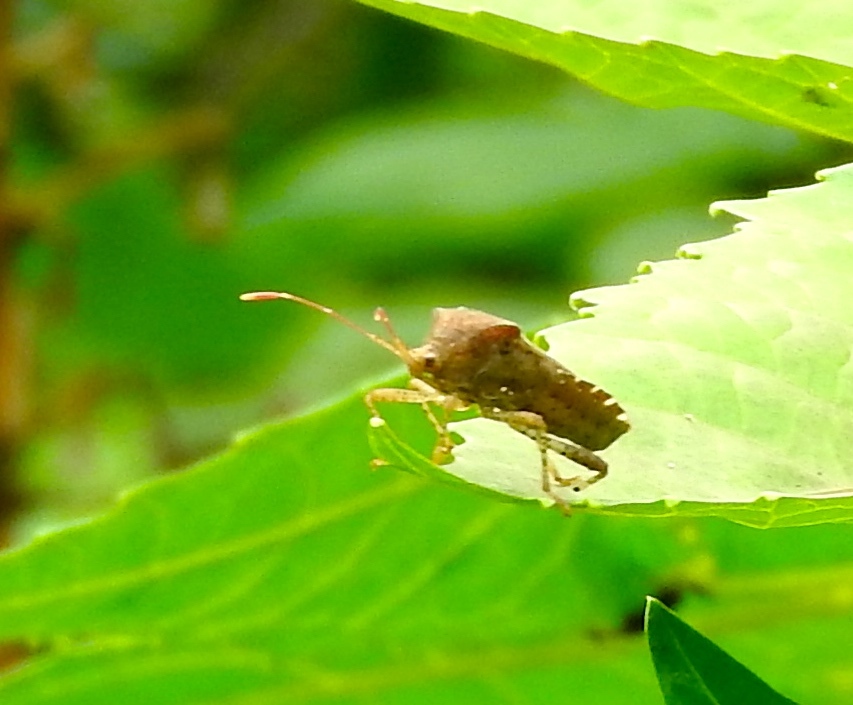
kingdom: Animalia
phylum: Arthropoda
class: Insecta
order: Hemiptera
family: Coreidae
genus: Anasa
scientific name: Anasa scorbutica
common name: Squash bug
